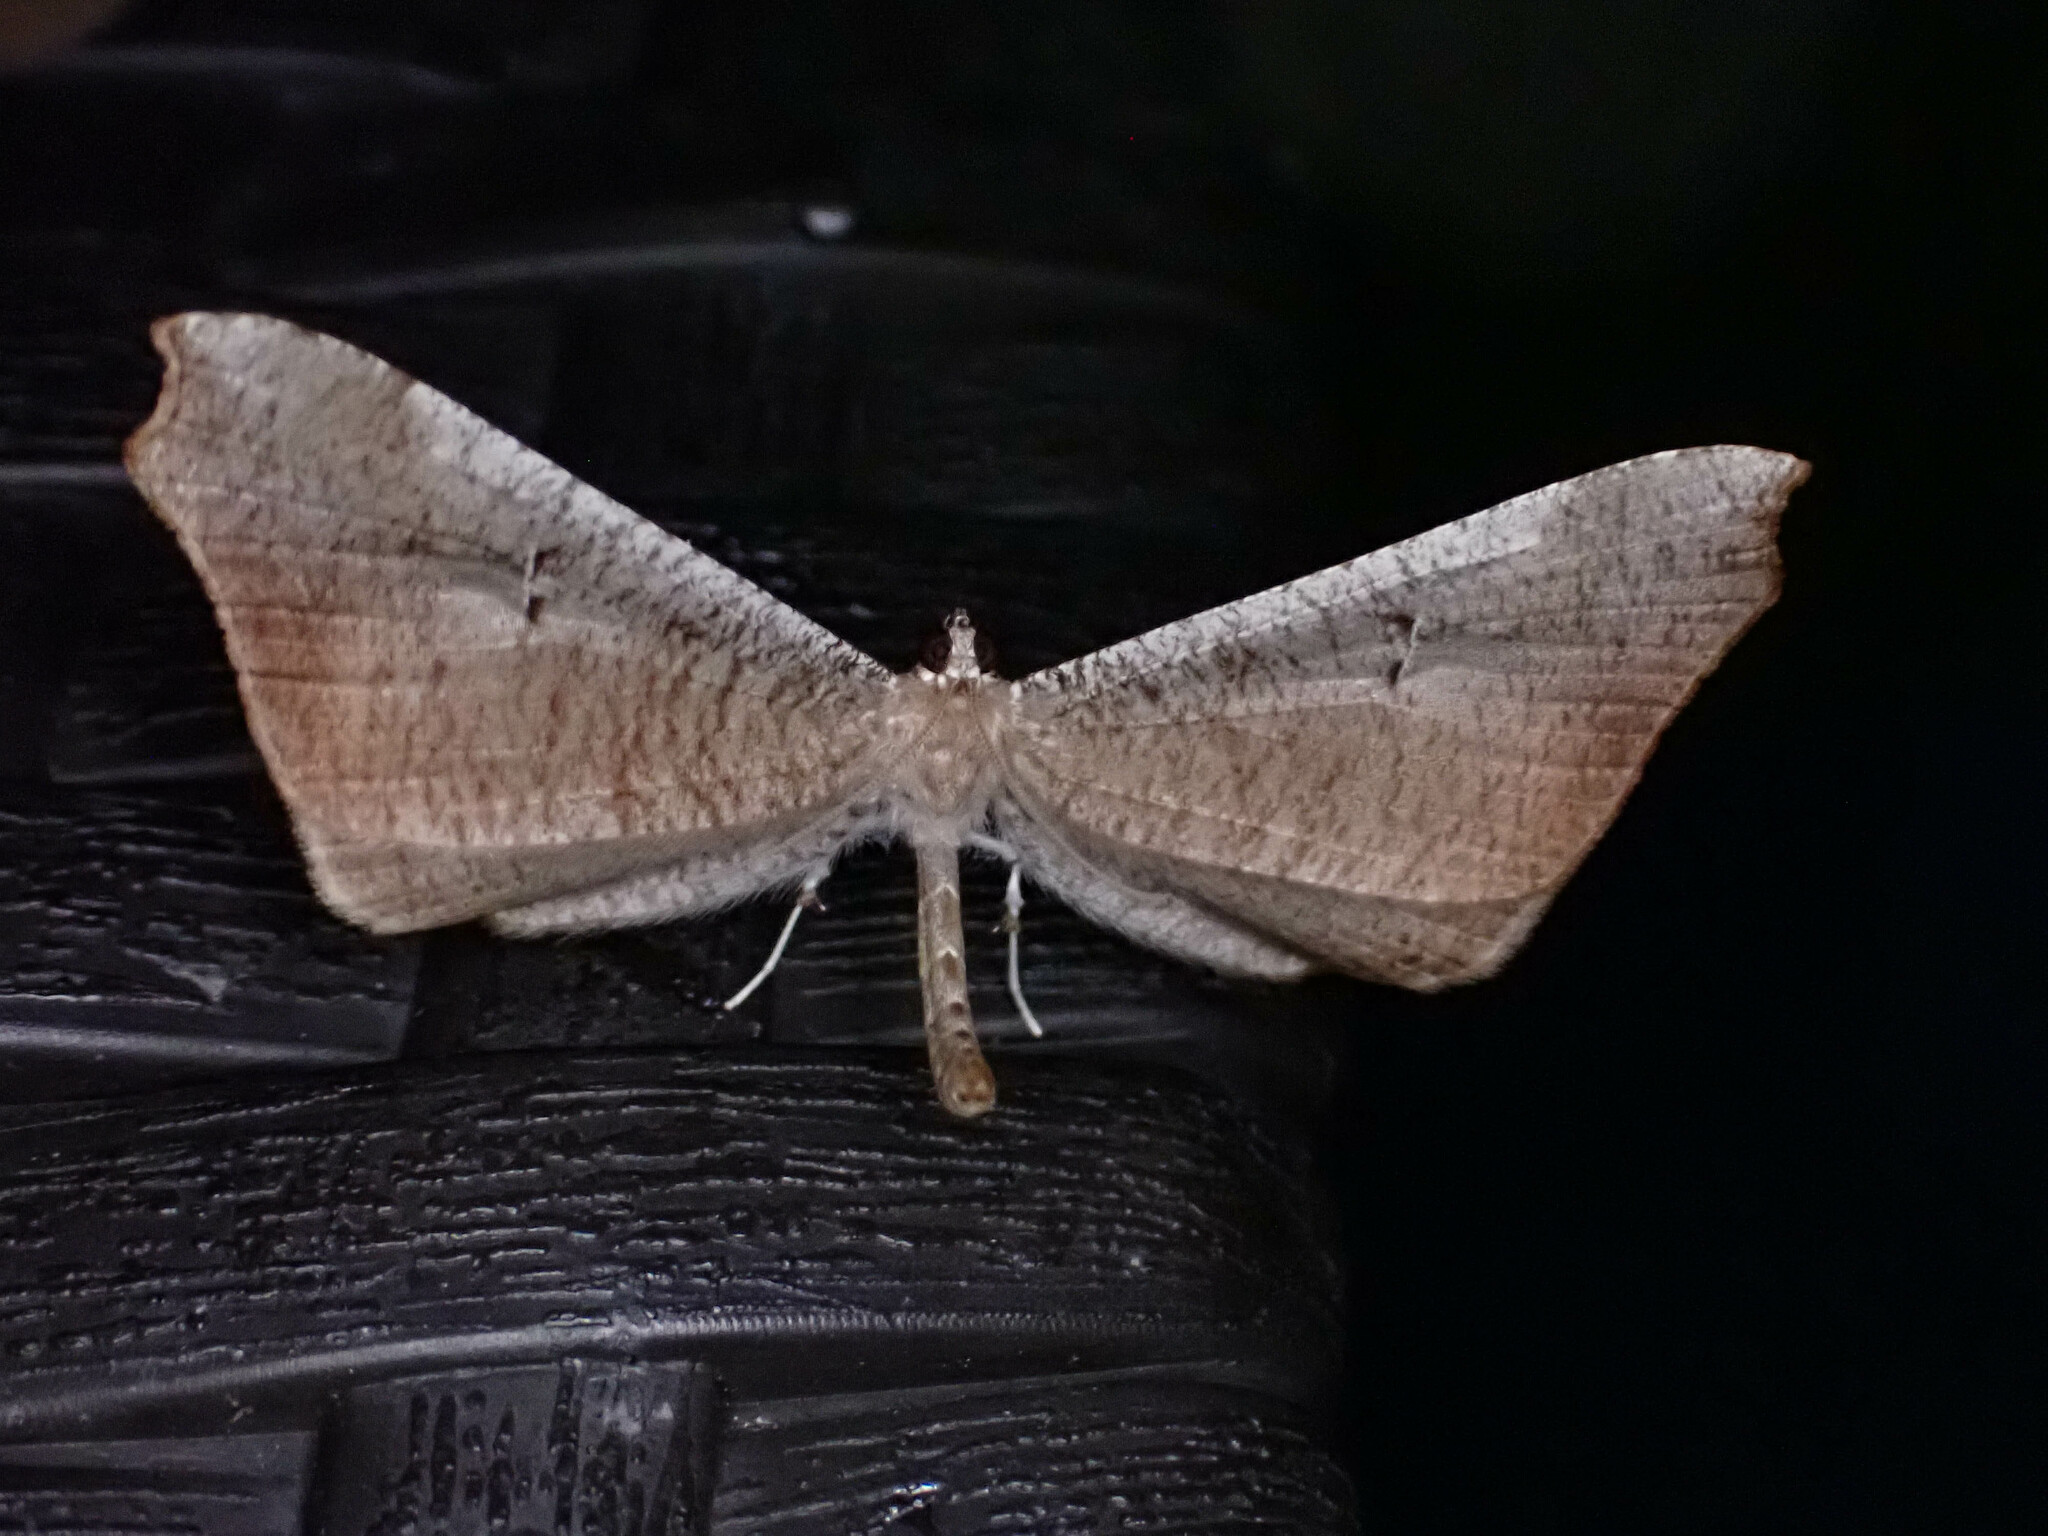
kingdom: Animalia
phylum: Arthropoda
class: Insecta
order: Lepidoptera
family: Hedylidae
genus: Macrosoma
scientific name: Macrosoma rubedinaria
